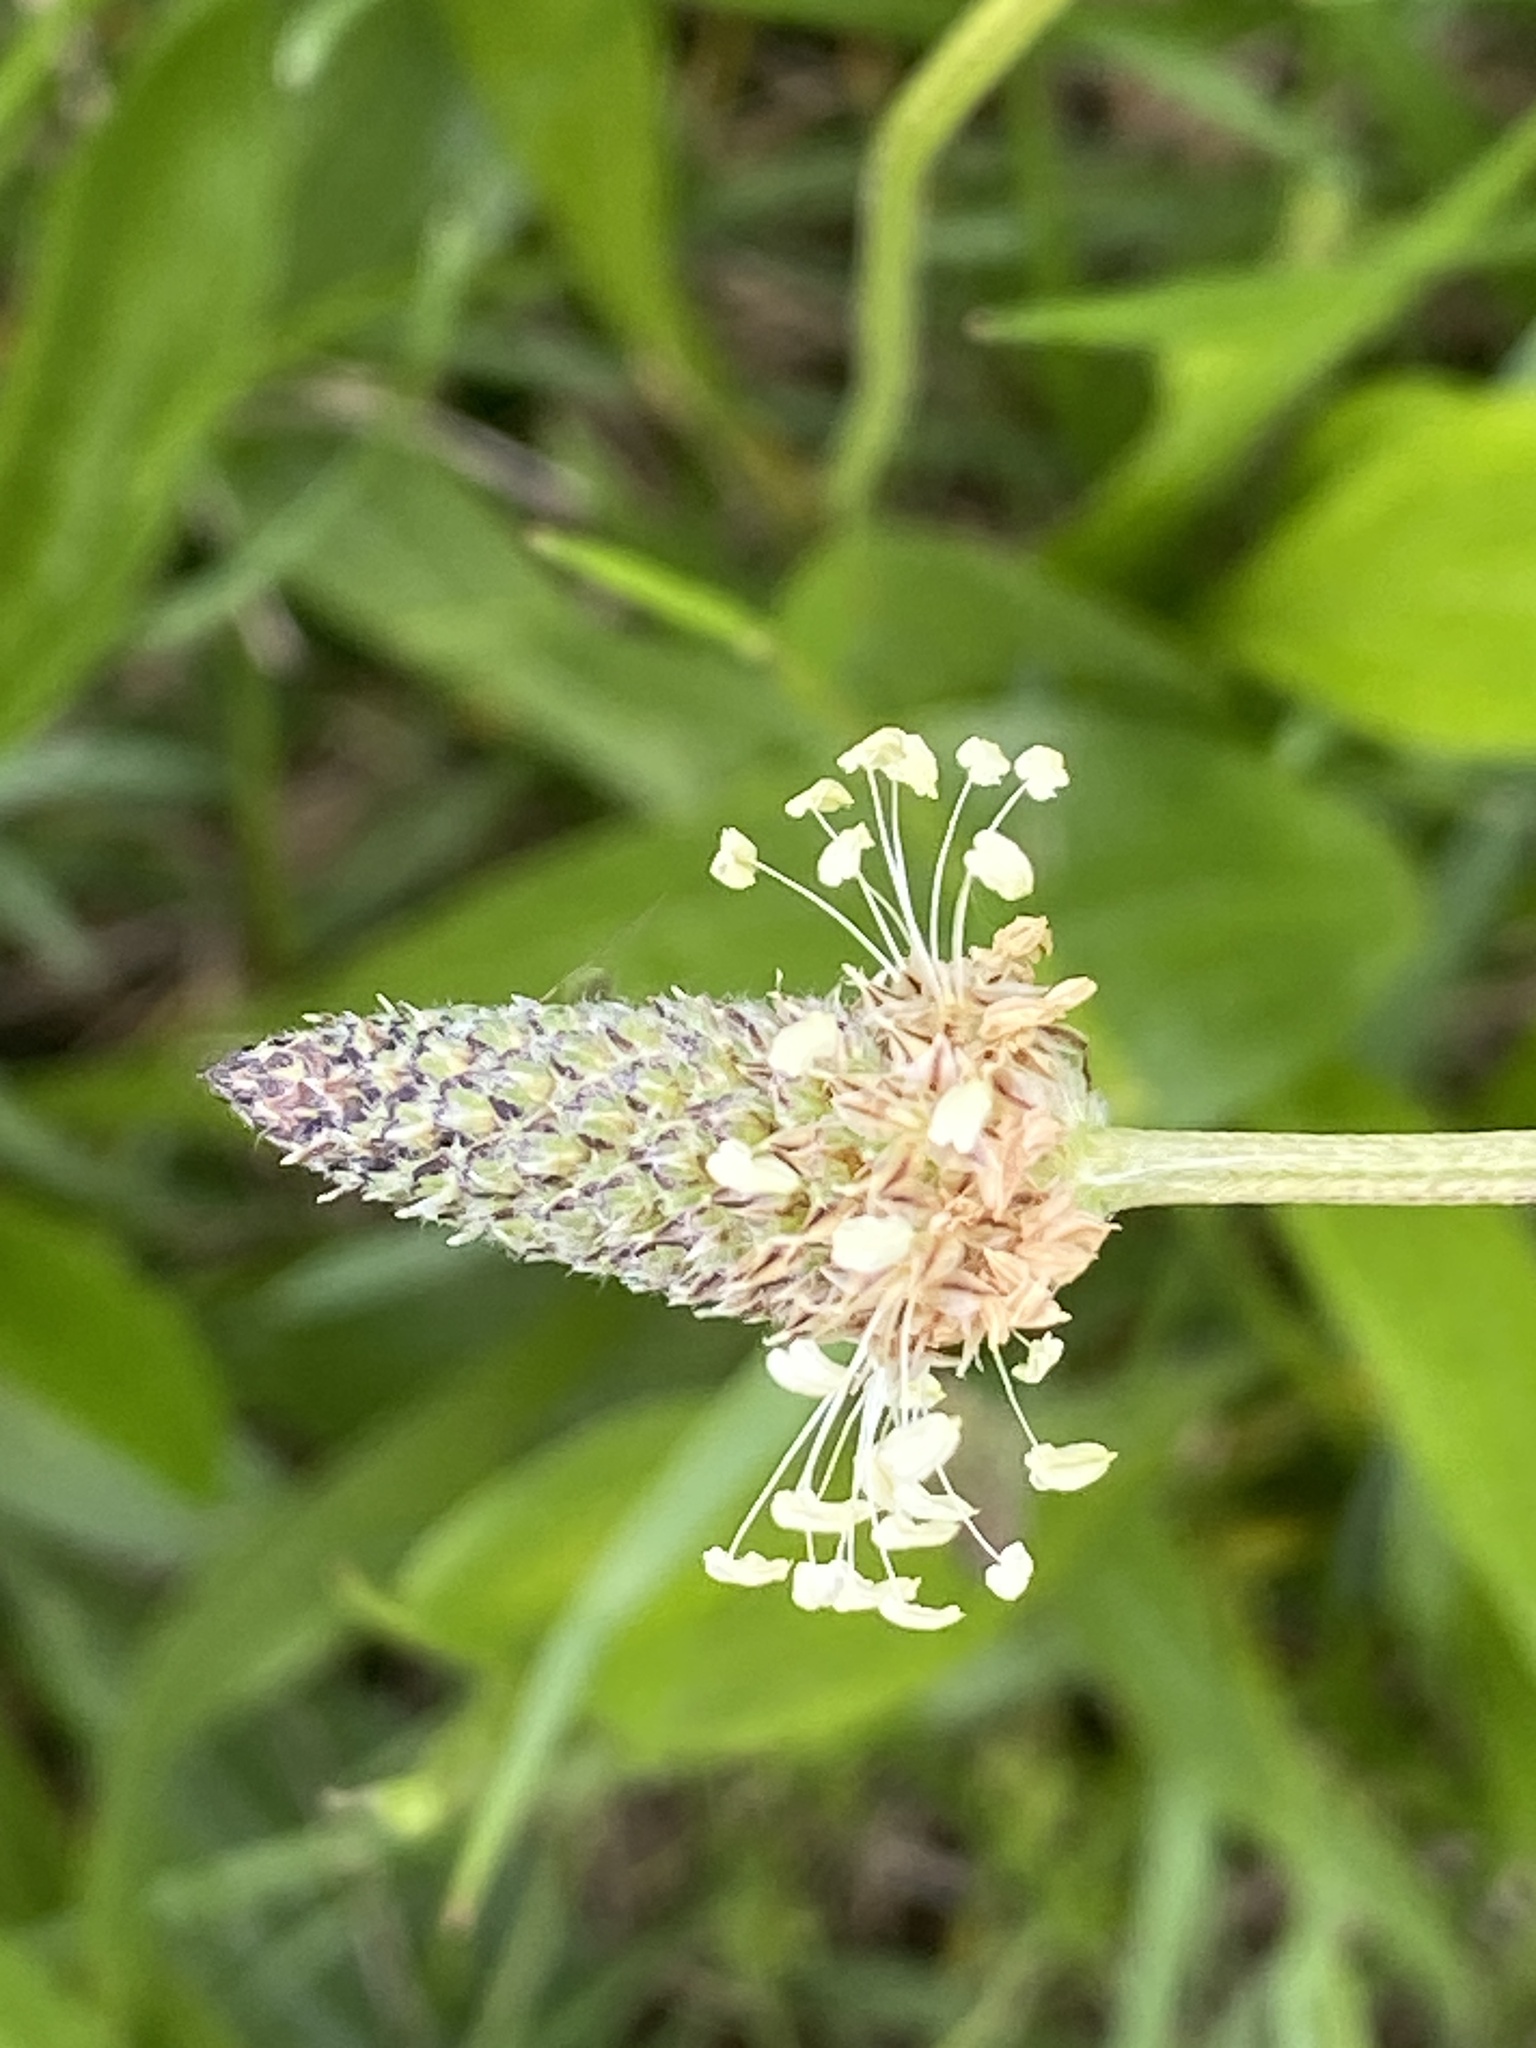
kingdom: Plantae
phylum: Tracheophyta
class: Magnoliopsida
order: Lamiales
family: Plantaginaceae
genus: Plantago
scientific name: Plantago lanceolata
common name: Ribwort plantain
